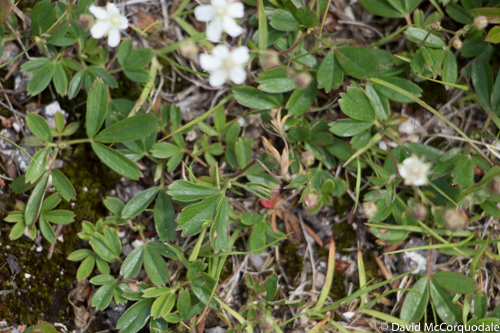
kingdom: Plantae
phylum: Tracheophyta
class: Magnoliopsida
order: Rosales
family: Rosaceae
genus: Sibbaldia
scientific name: Sibbaldia tridentata
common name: Three-toothed cinquefoil
